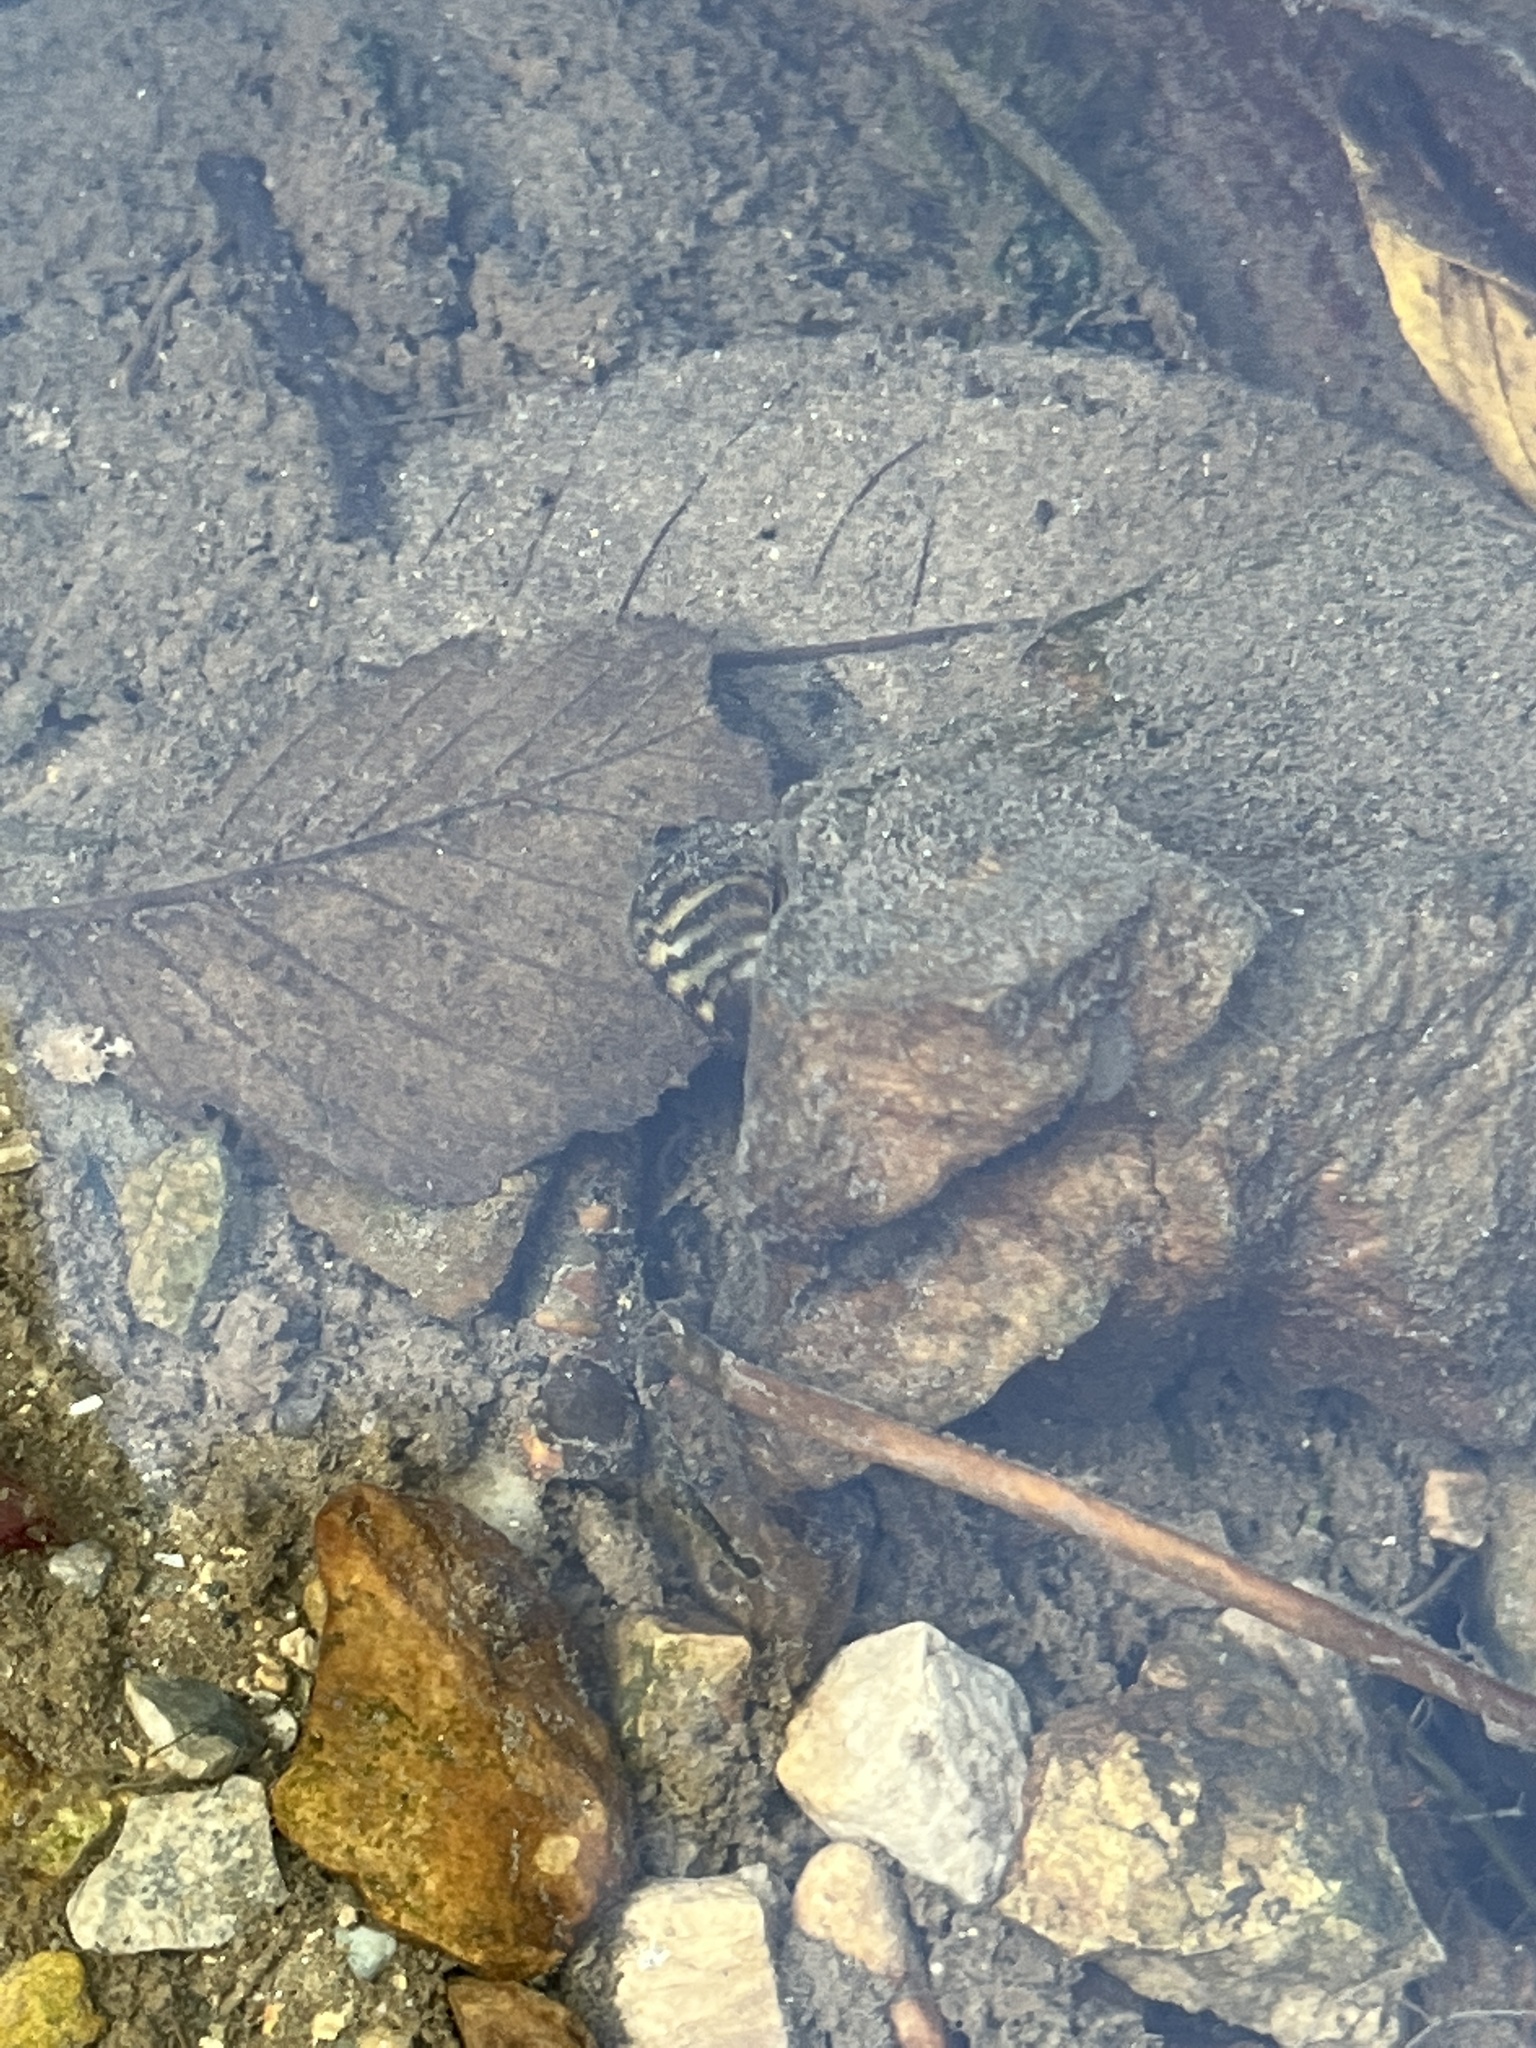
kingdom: Animalia
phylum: Mollusca
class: Bivalvia
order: Myida
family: Dreissenidae
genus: Dreissena
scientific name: Dreissena polymorpha
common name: Zebra mussel
